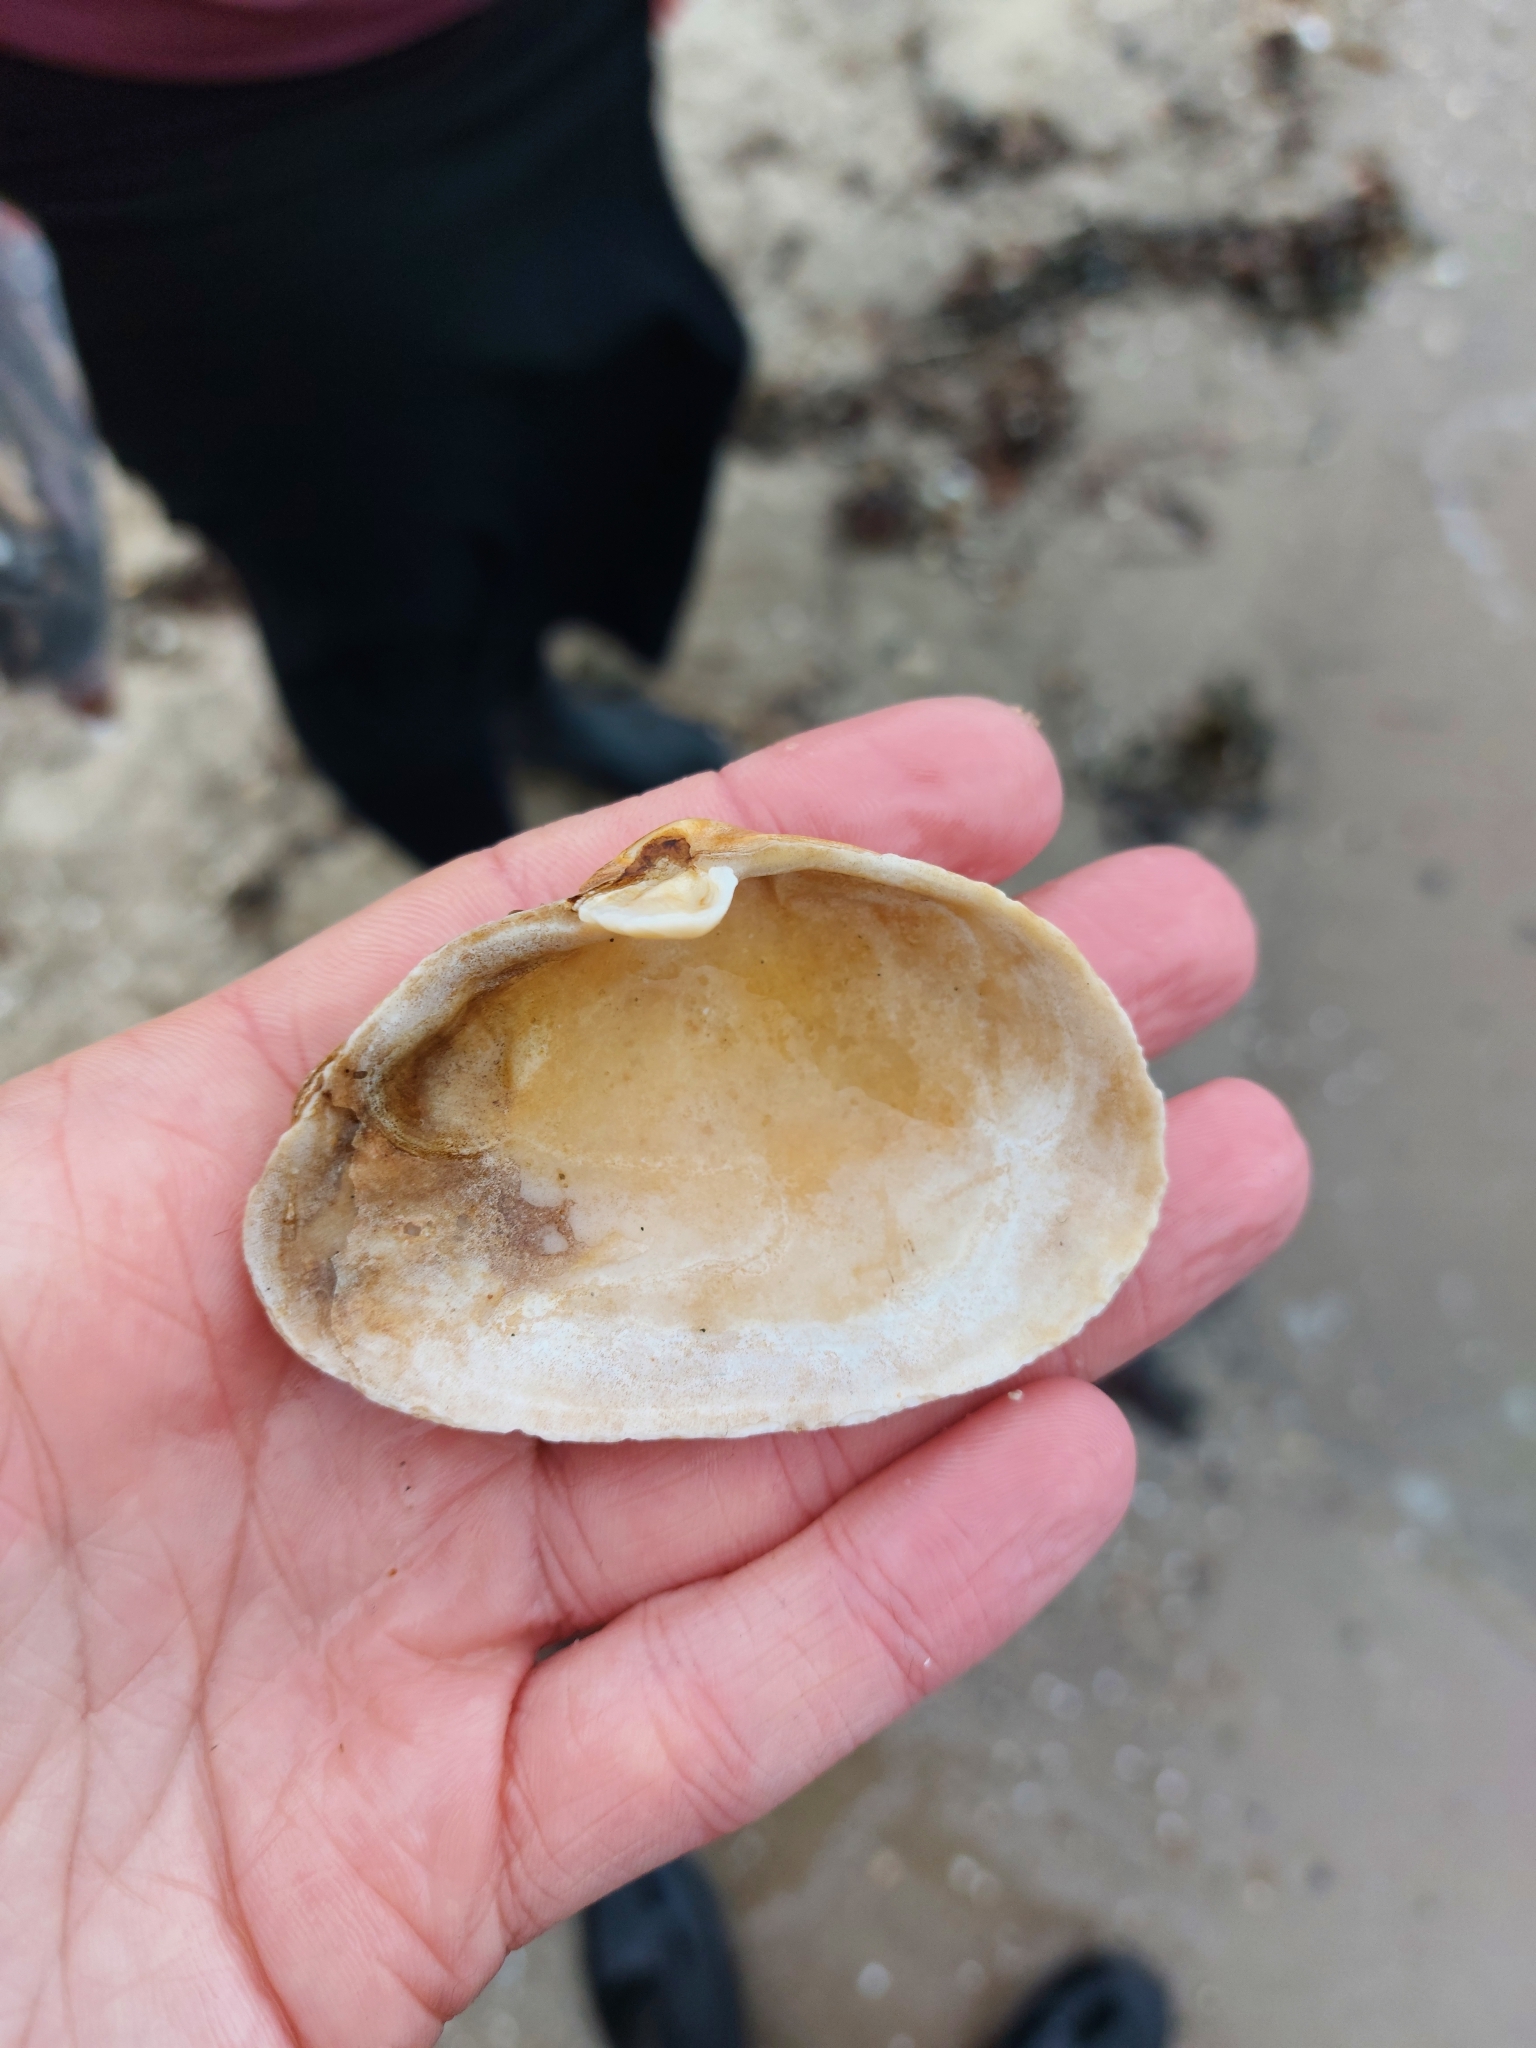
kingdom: Animalia
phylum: Mollusca
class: Bivalvia
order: Myida
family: Myidae
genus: Mya
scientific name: Mya arenaria
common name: Soft-shelled clam
